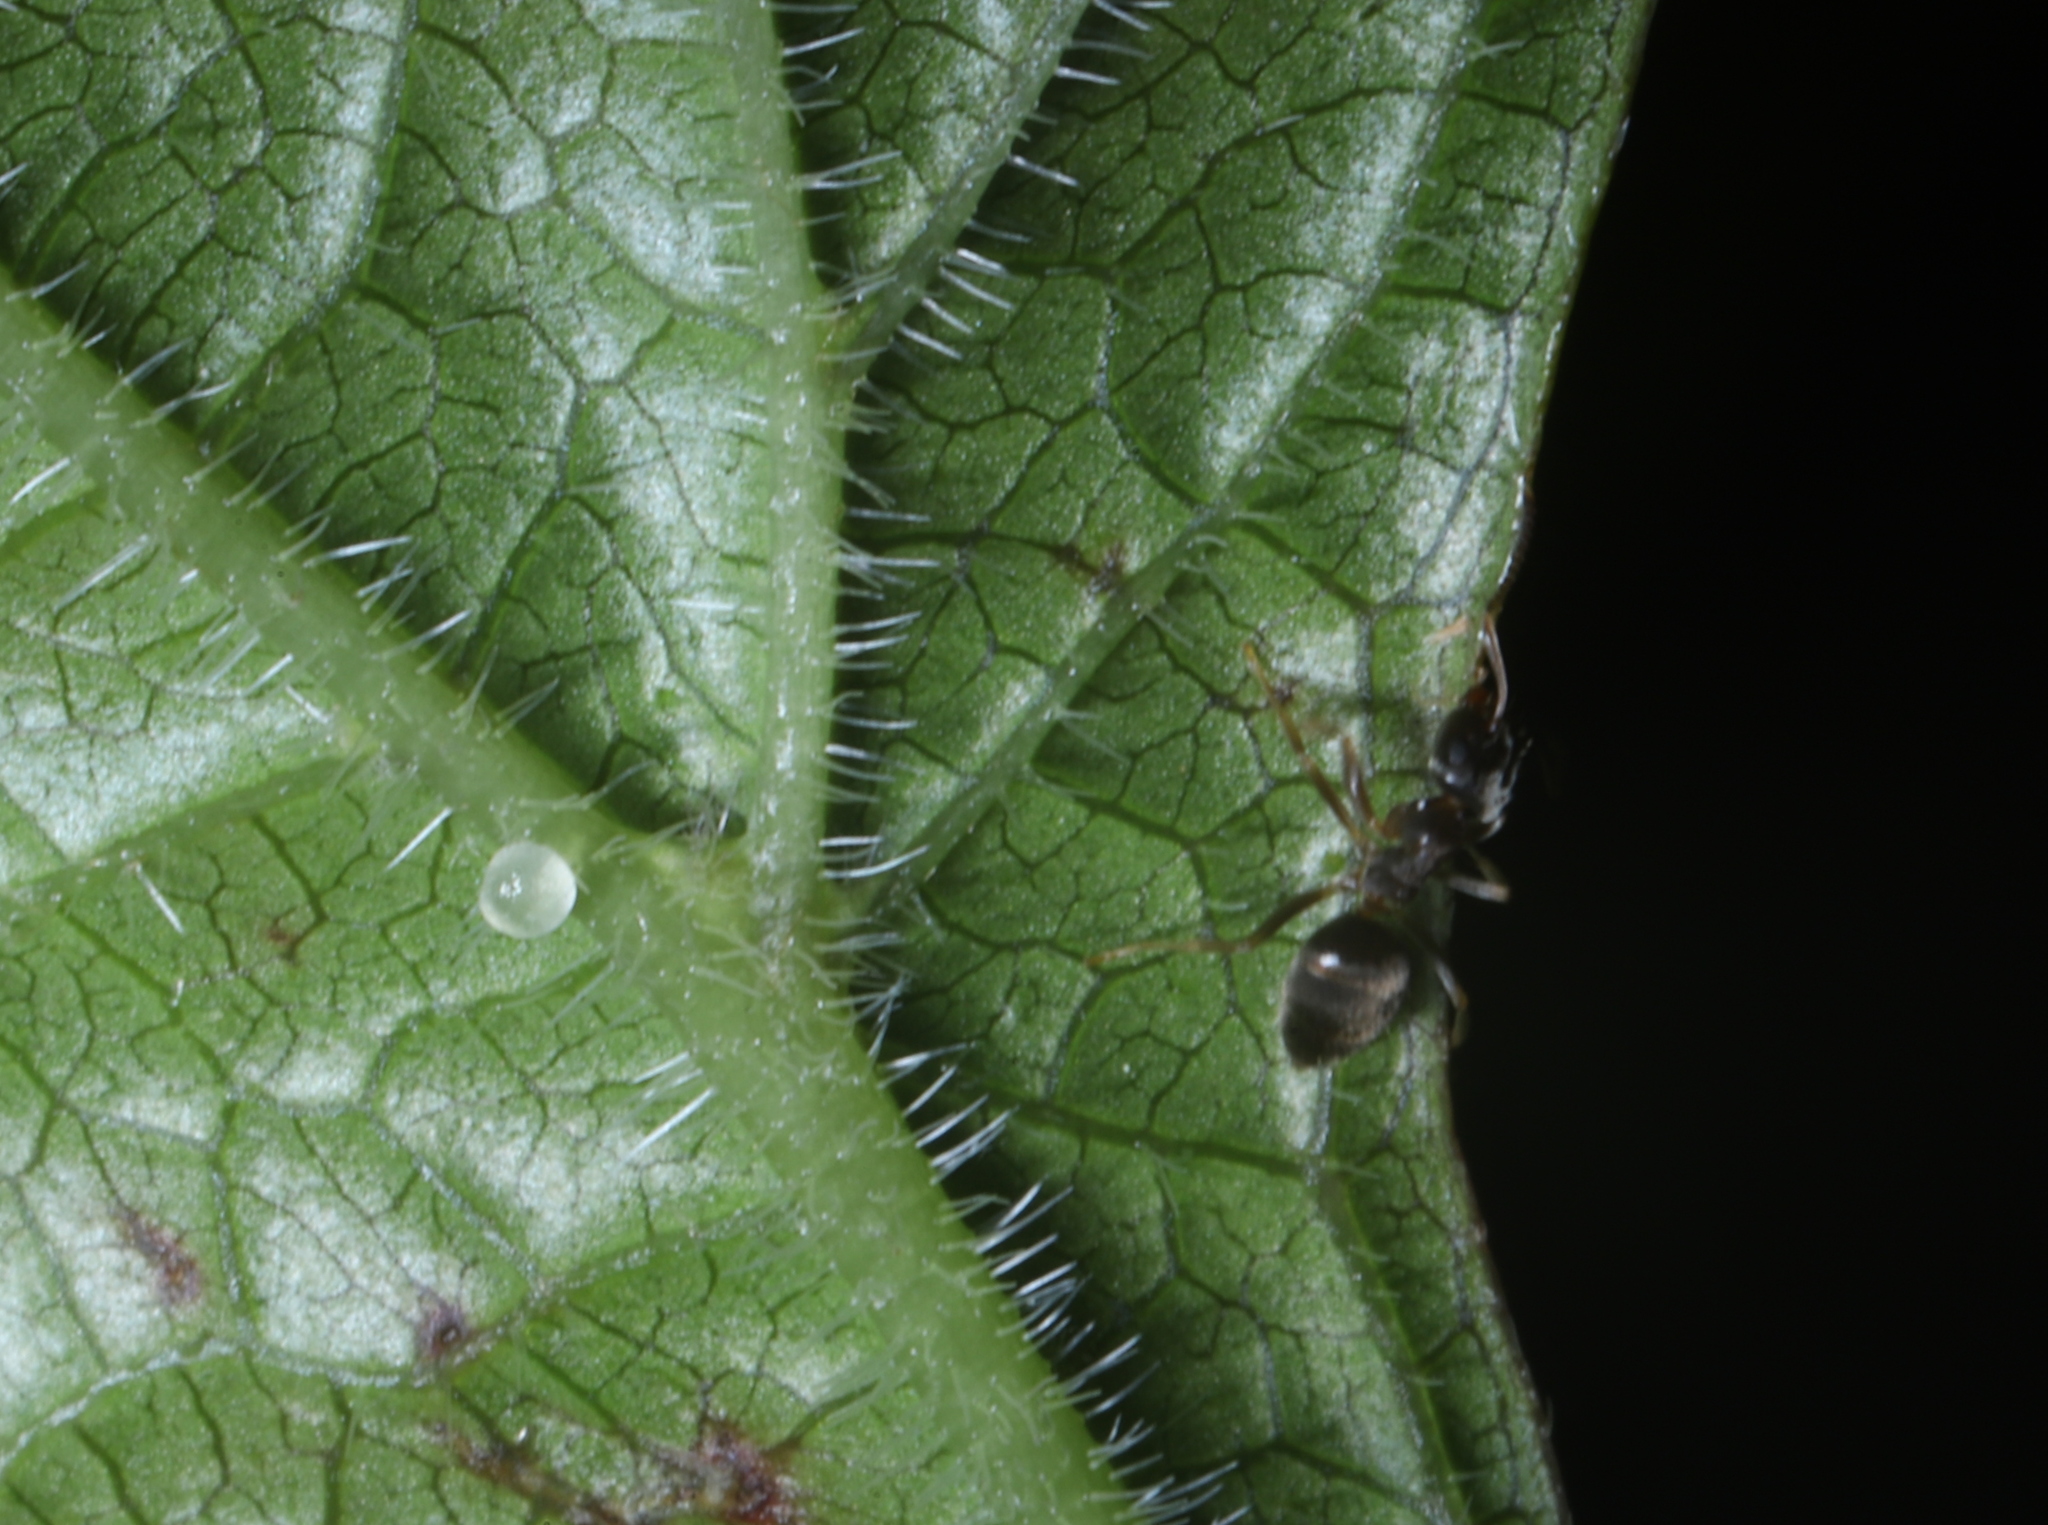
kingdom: Animalia
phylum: Arthropoda
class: Insecta
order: Hymenoptera
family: Formicidae
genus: Lasius
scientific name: Lasius americanus
